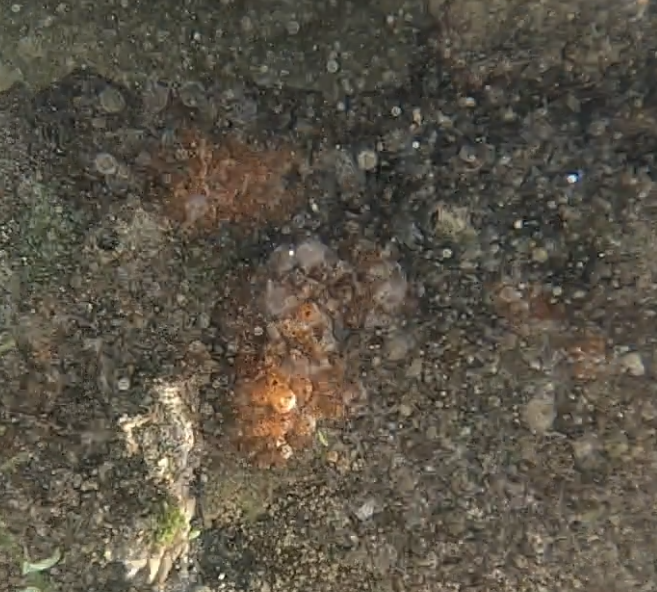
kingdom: Animalia
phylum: Chordata
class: Ascidiacea
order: Phlebobranchia
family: Perophoridae
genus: Ecteinascidia
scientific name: Ecteinascidia turbinata
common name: Mangrove tunicate
